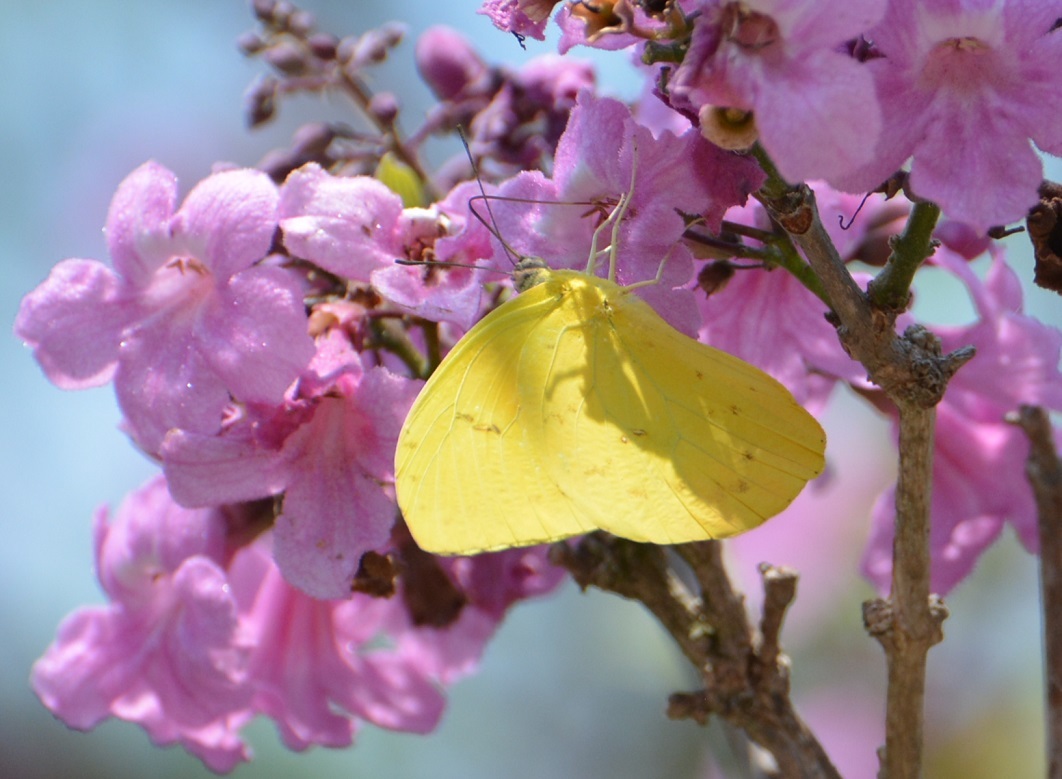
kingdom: Animalia
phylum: Arthropoda
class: Insecta
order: Lepidoptera
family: Pieridae
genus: Phoebis
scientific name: Phoebis marcellina
